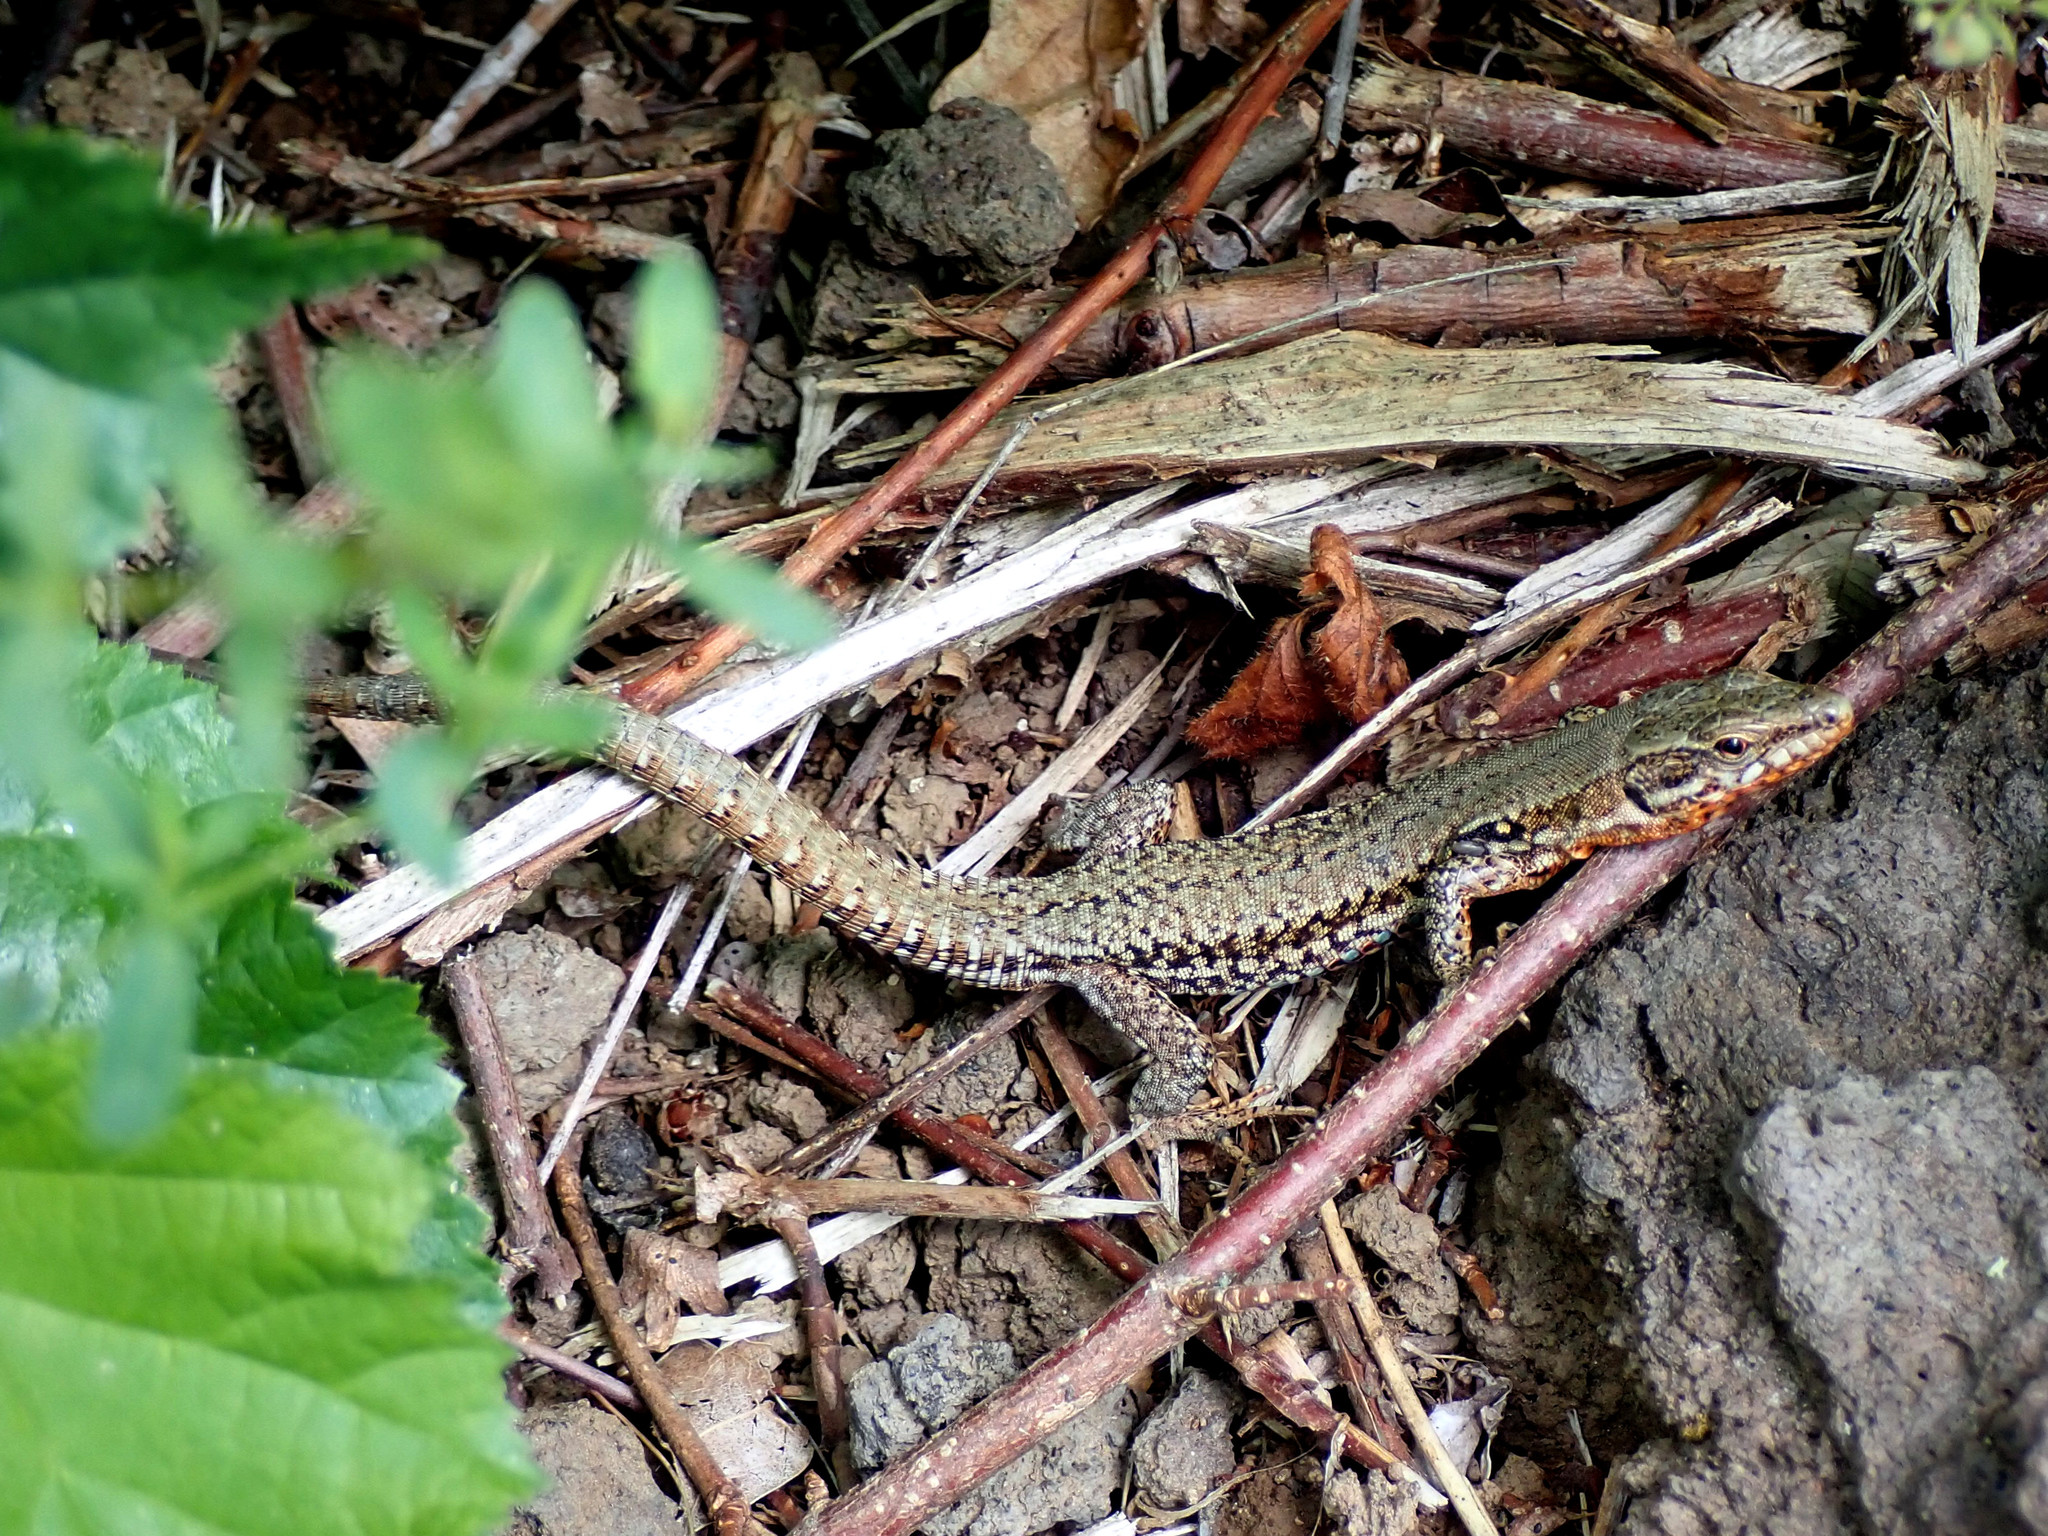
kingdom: Animalia
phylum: Chordata
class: Squamata
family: Lacertidae
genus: Podarcis
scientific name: Podarcis muralis
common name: Common wall lizard
